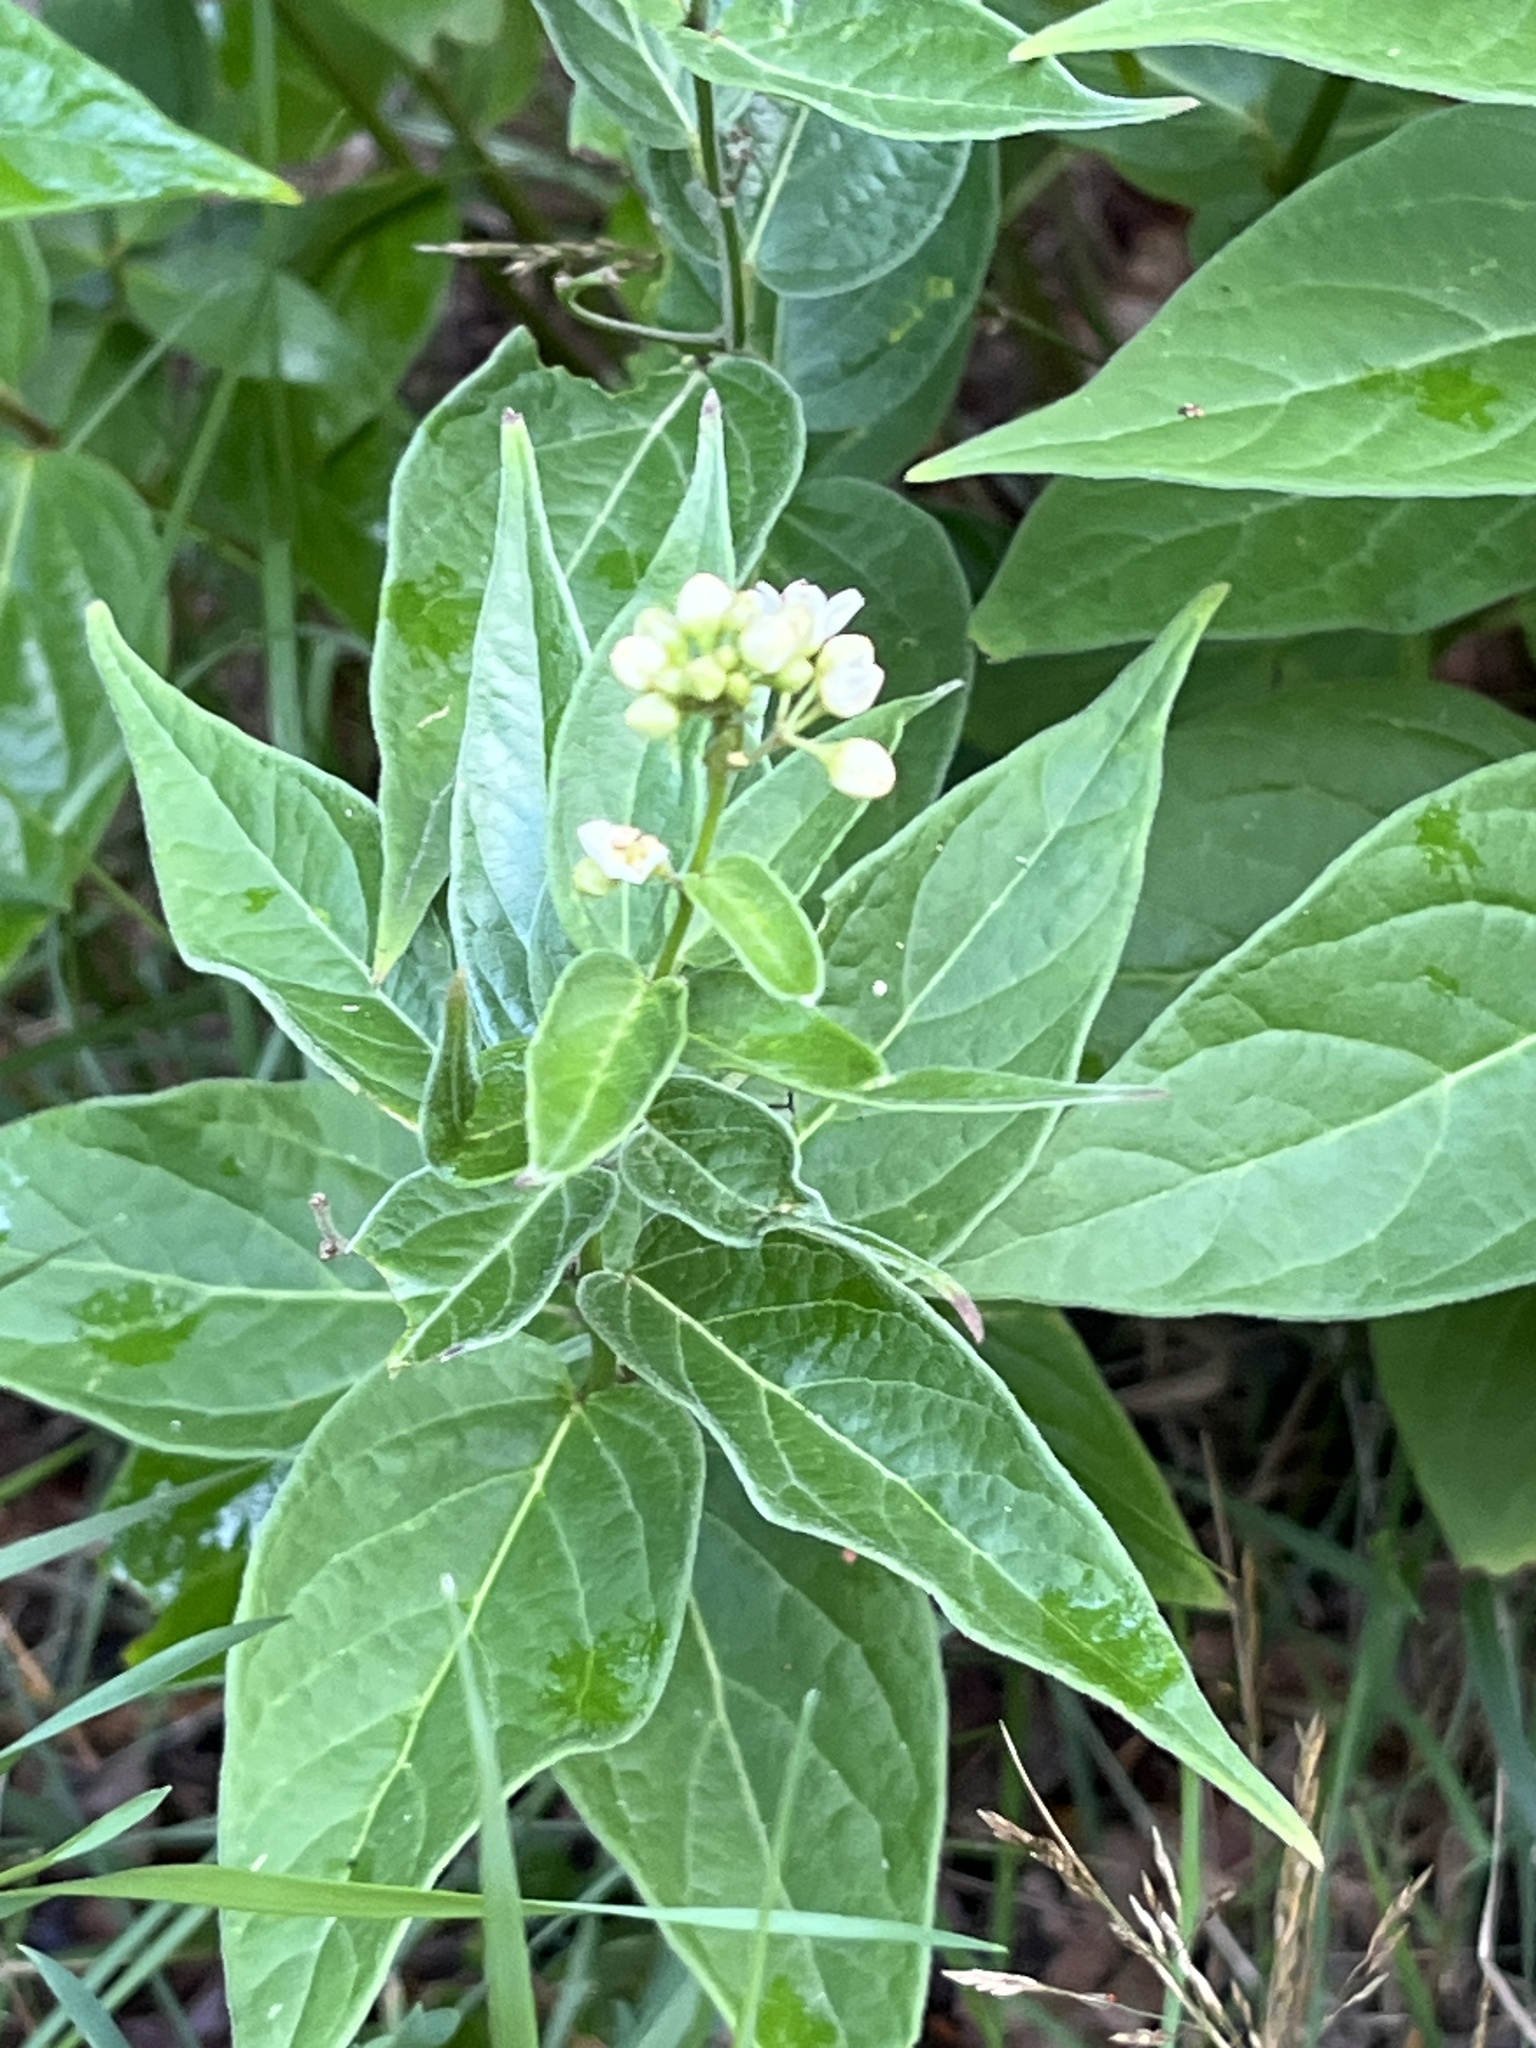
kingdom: Plantae
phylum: Tracheophyta
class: Magnoliopsida
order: Gentianales
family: Apocynaceae
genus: Vincetoxicum
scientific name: Vincetoxicum hirundinaria
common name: White swallowwort
